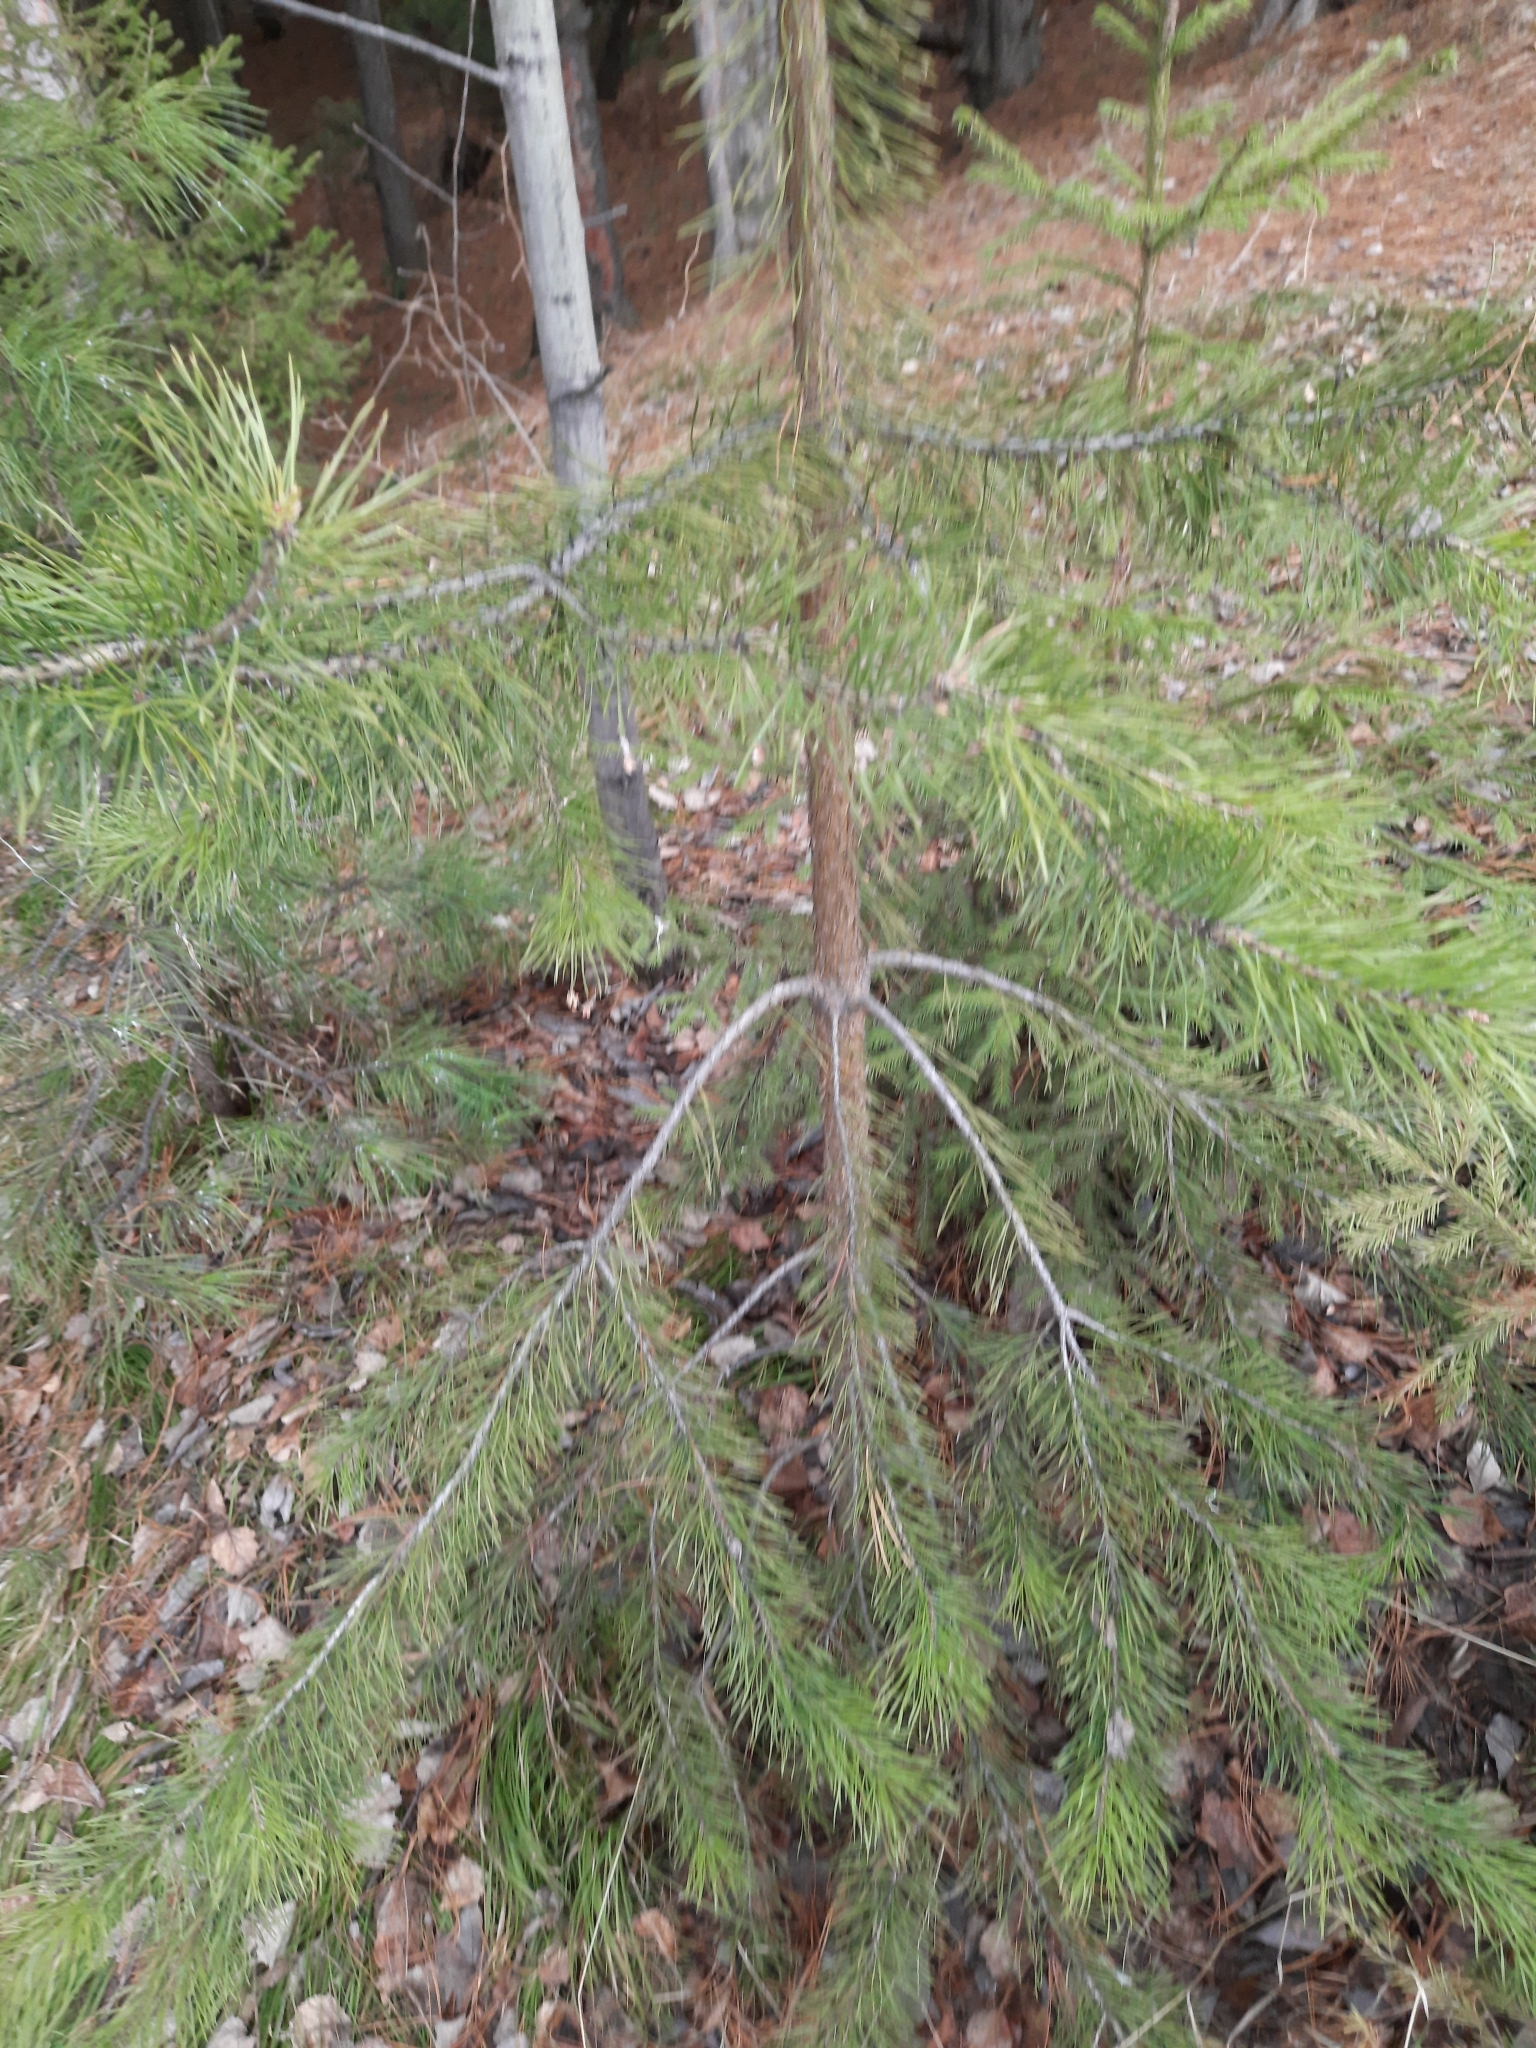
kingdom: Plantae
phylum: Tracheophyta
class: Pinopsida
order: Pinales
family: Pinaceae
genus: Pinus
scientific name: Pinus sylvestris
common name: Scots pine
